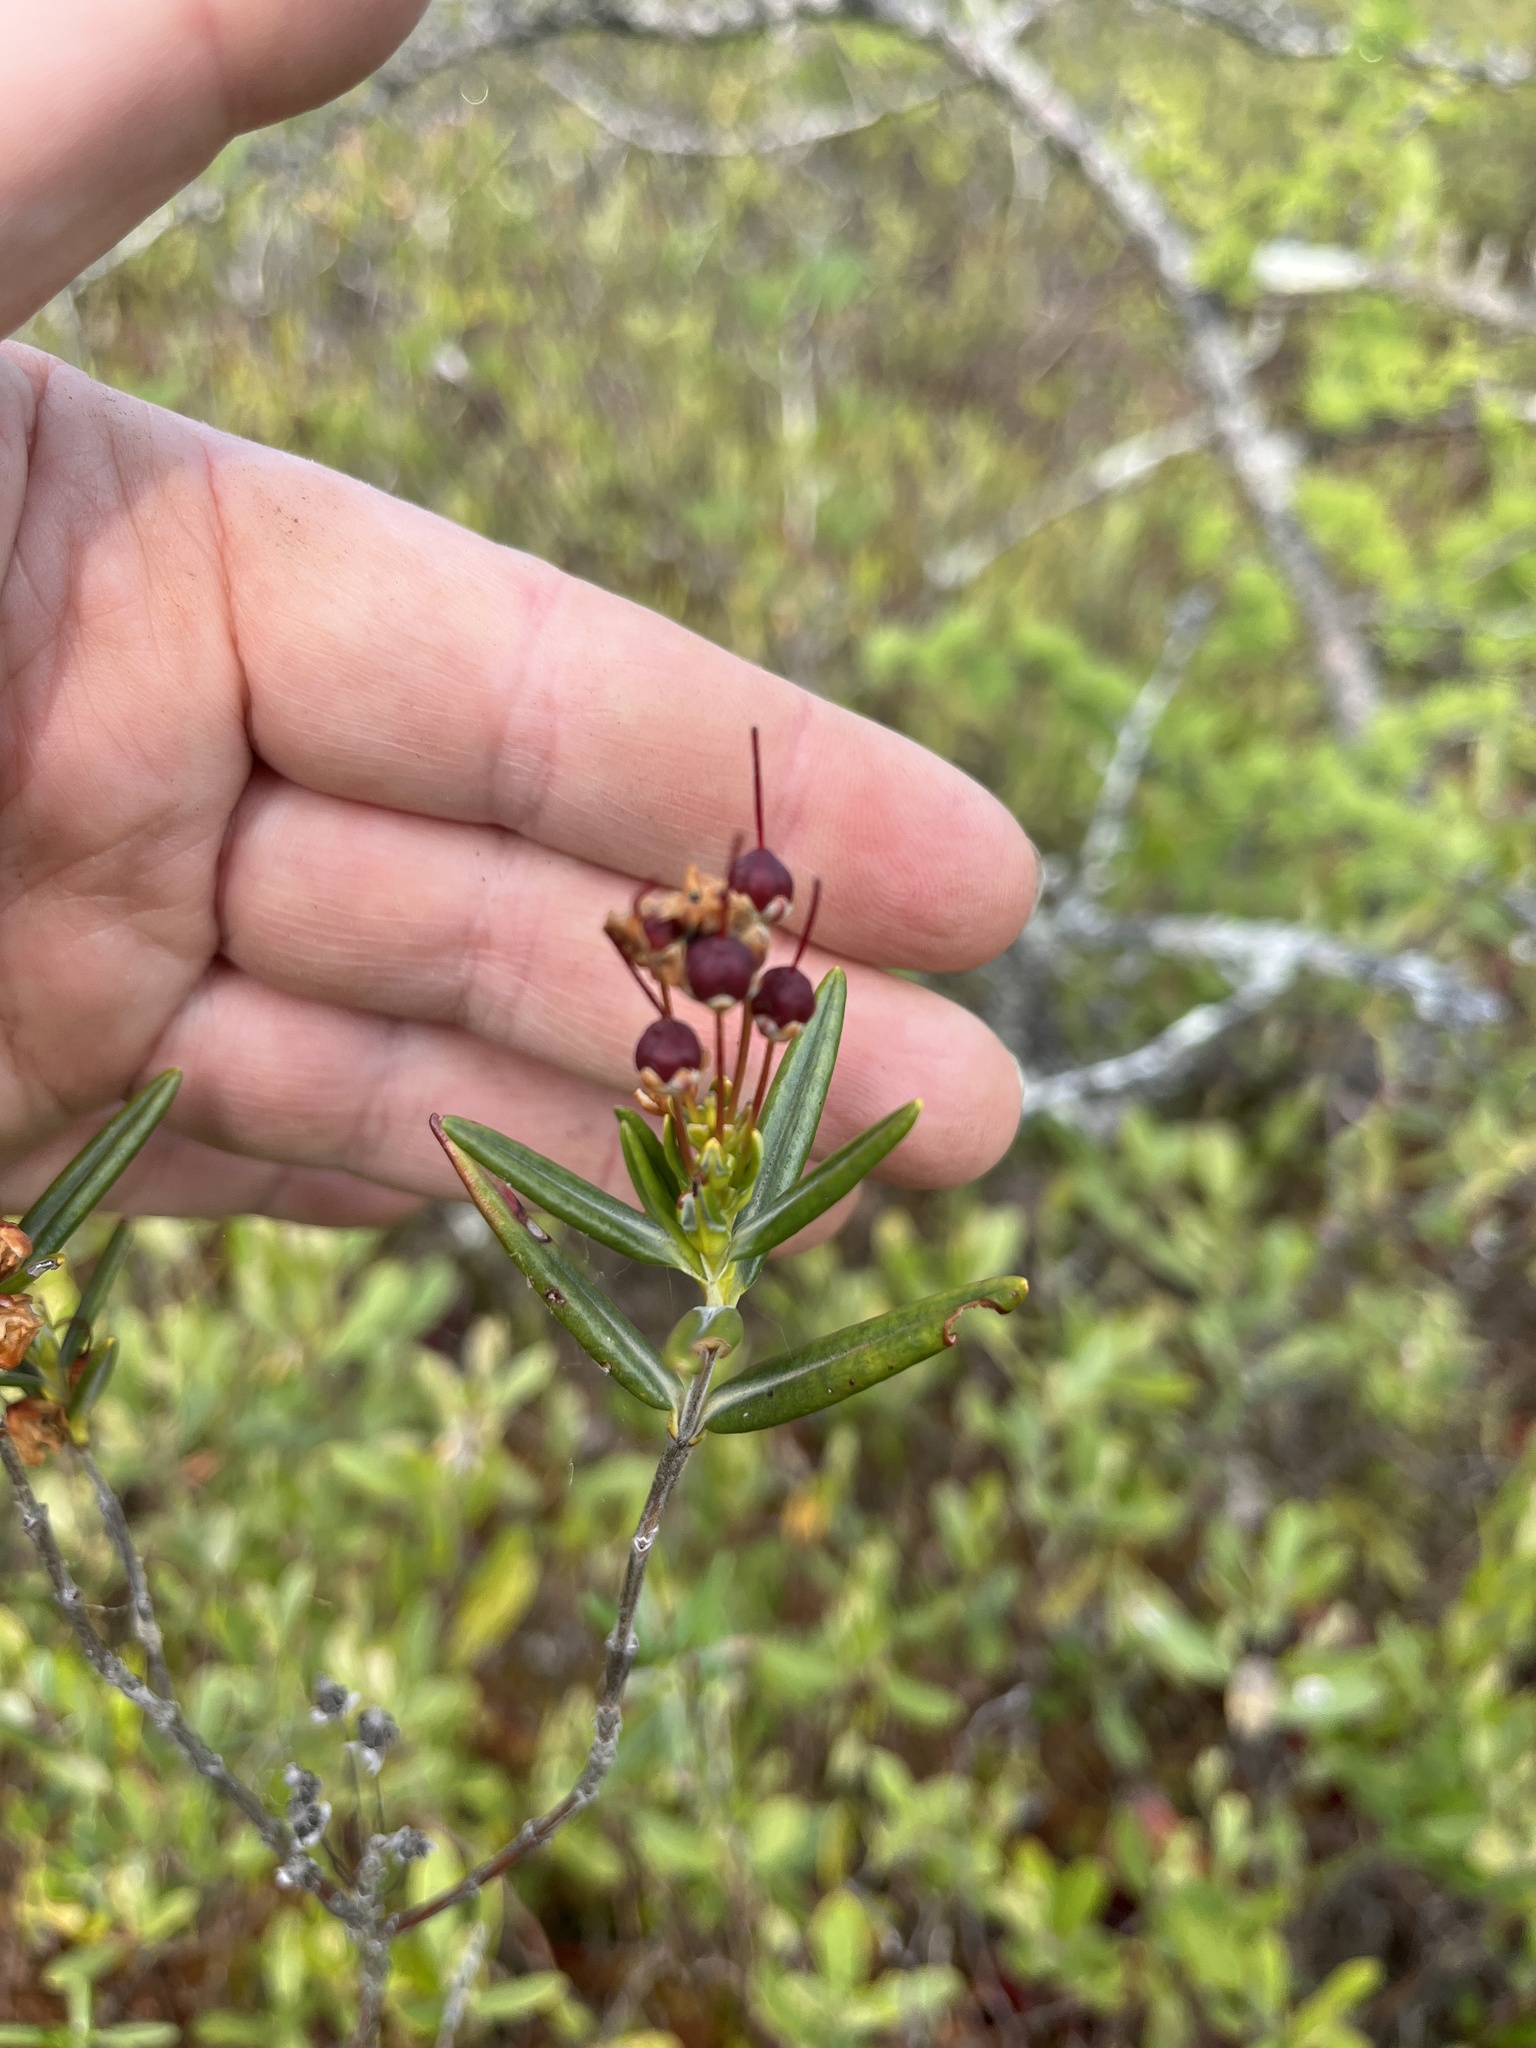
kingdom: Plantae
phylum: Tracheophyta
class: Magnoliopsida
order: Ericales
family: Ericaceae
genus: Kalmia
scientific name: Kalmia polifolia
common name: Bog-laurel
